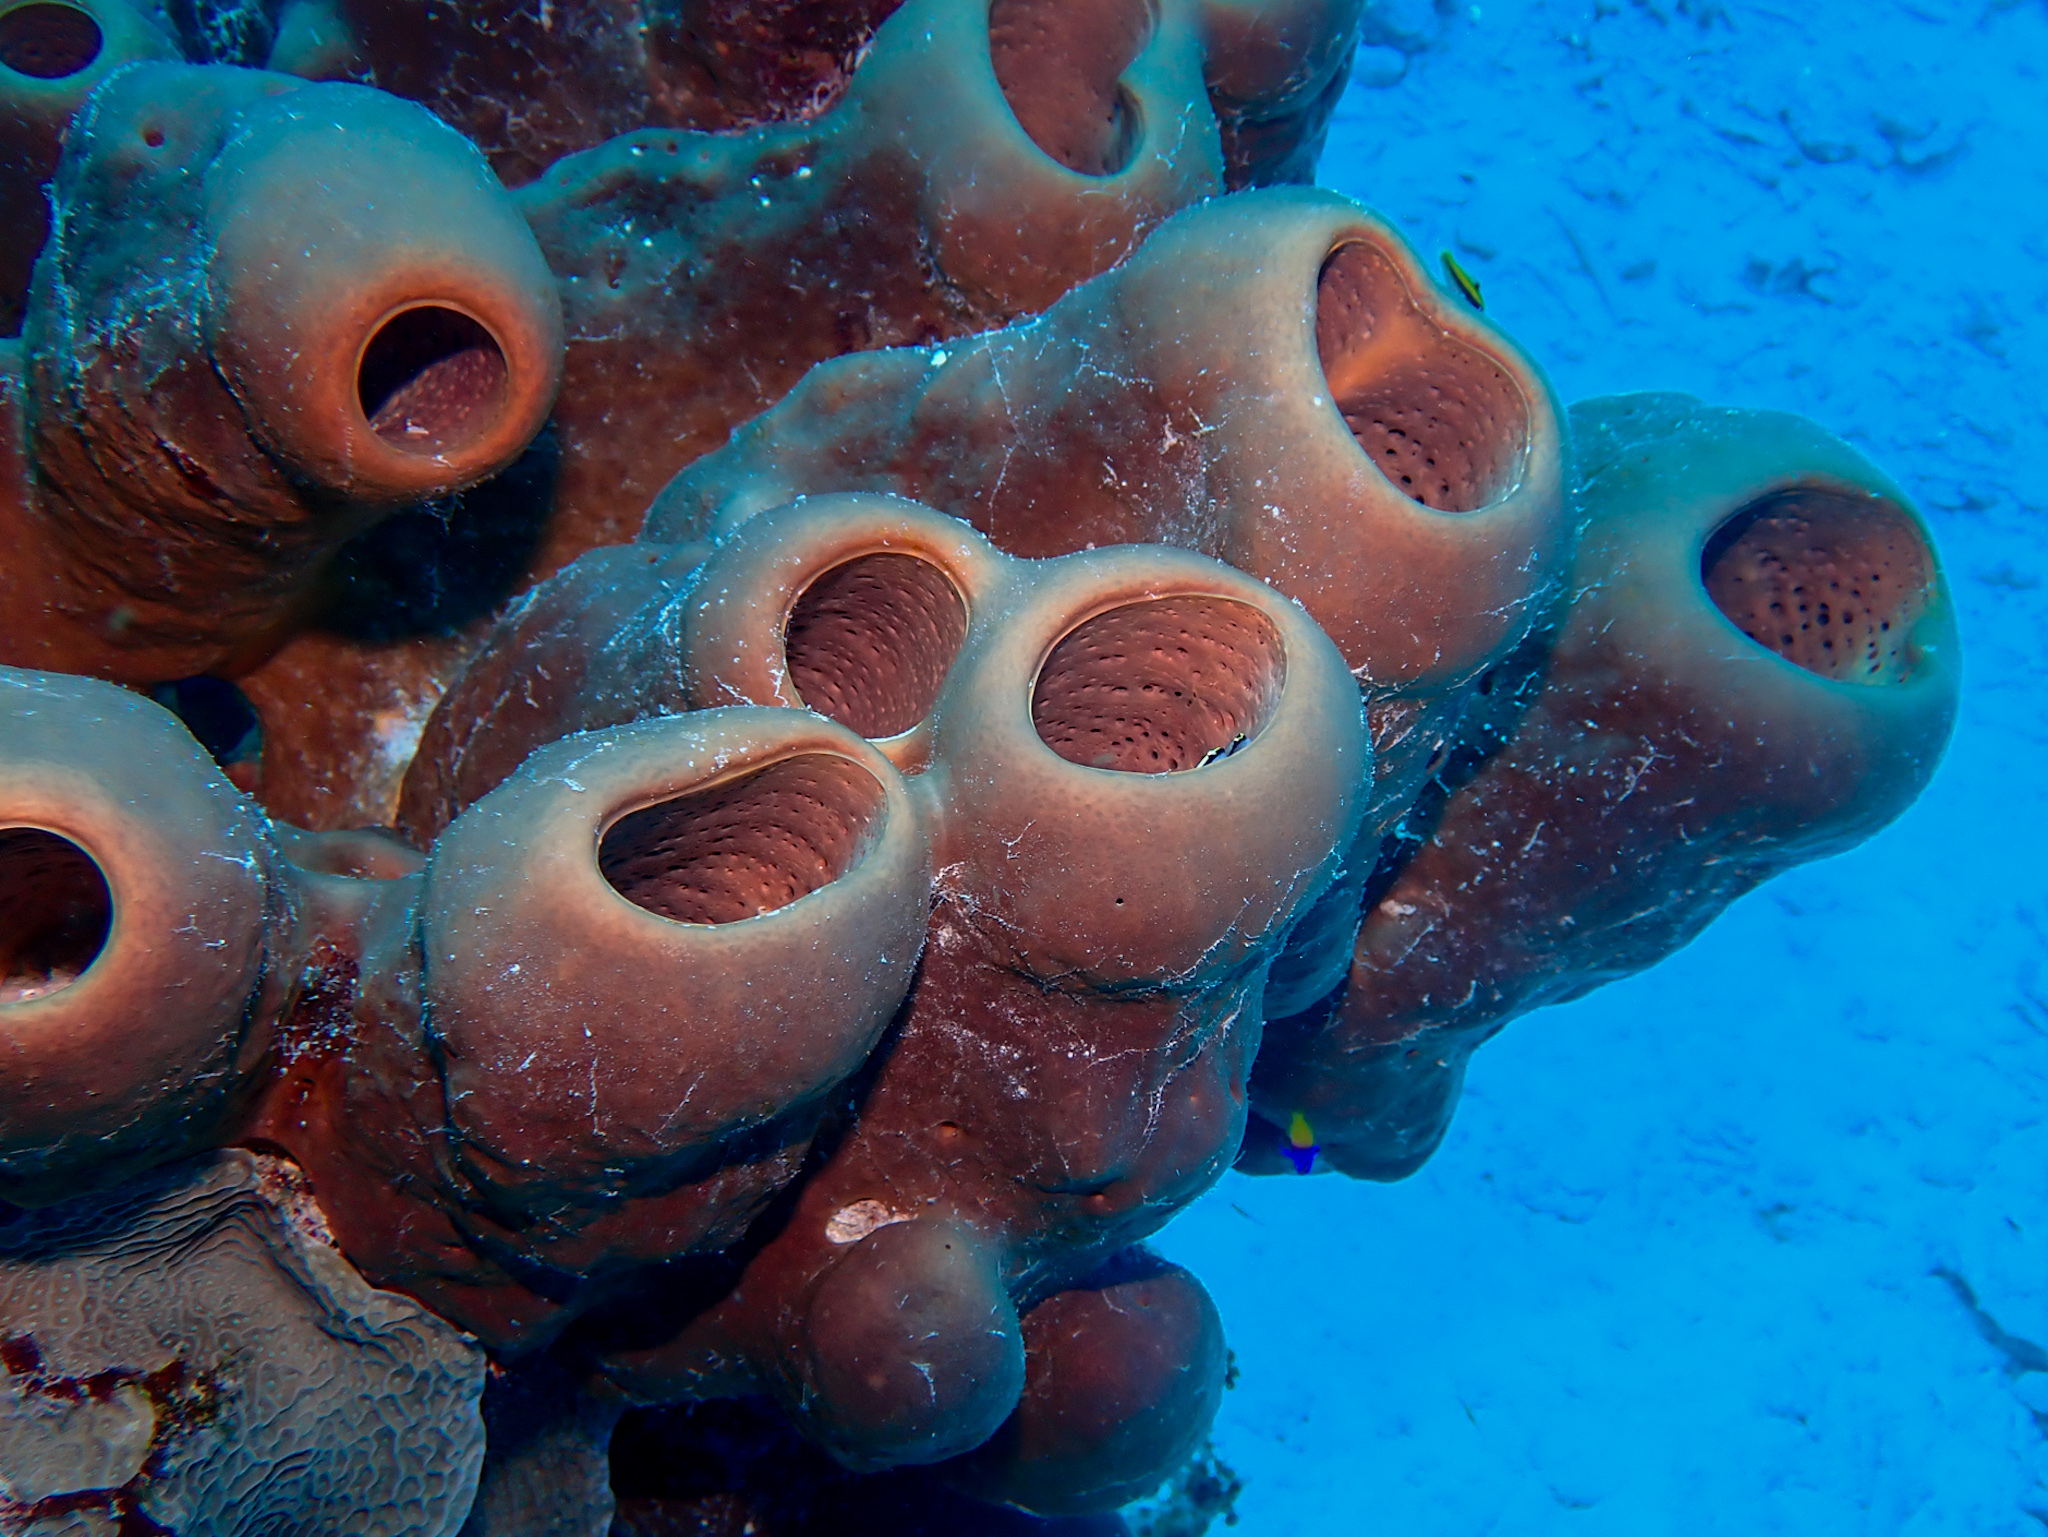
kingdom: Animalia
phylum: Porifera
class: Demospongiae
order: Agelasida
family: Agelasidae
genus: Agelas
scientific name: Agelas tubulata
